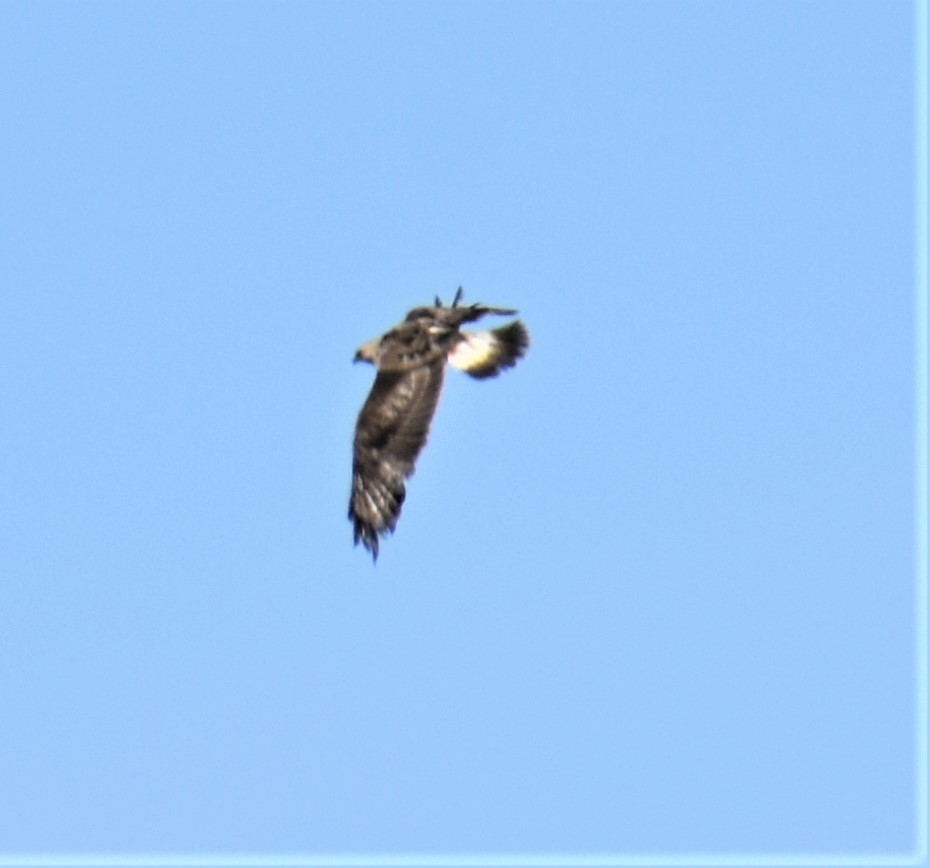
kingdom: Animalia
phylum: Chordata
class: Aves
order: Accipitriformes
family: Accipitridae
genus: Buteo
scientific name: Buteo lagopus
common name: Rough-legged buzzard
